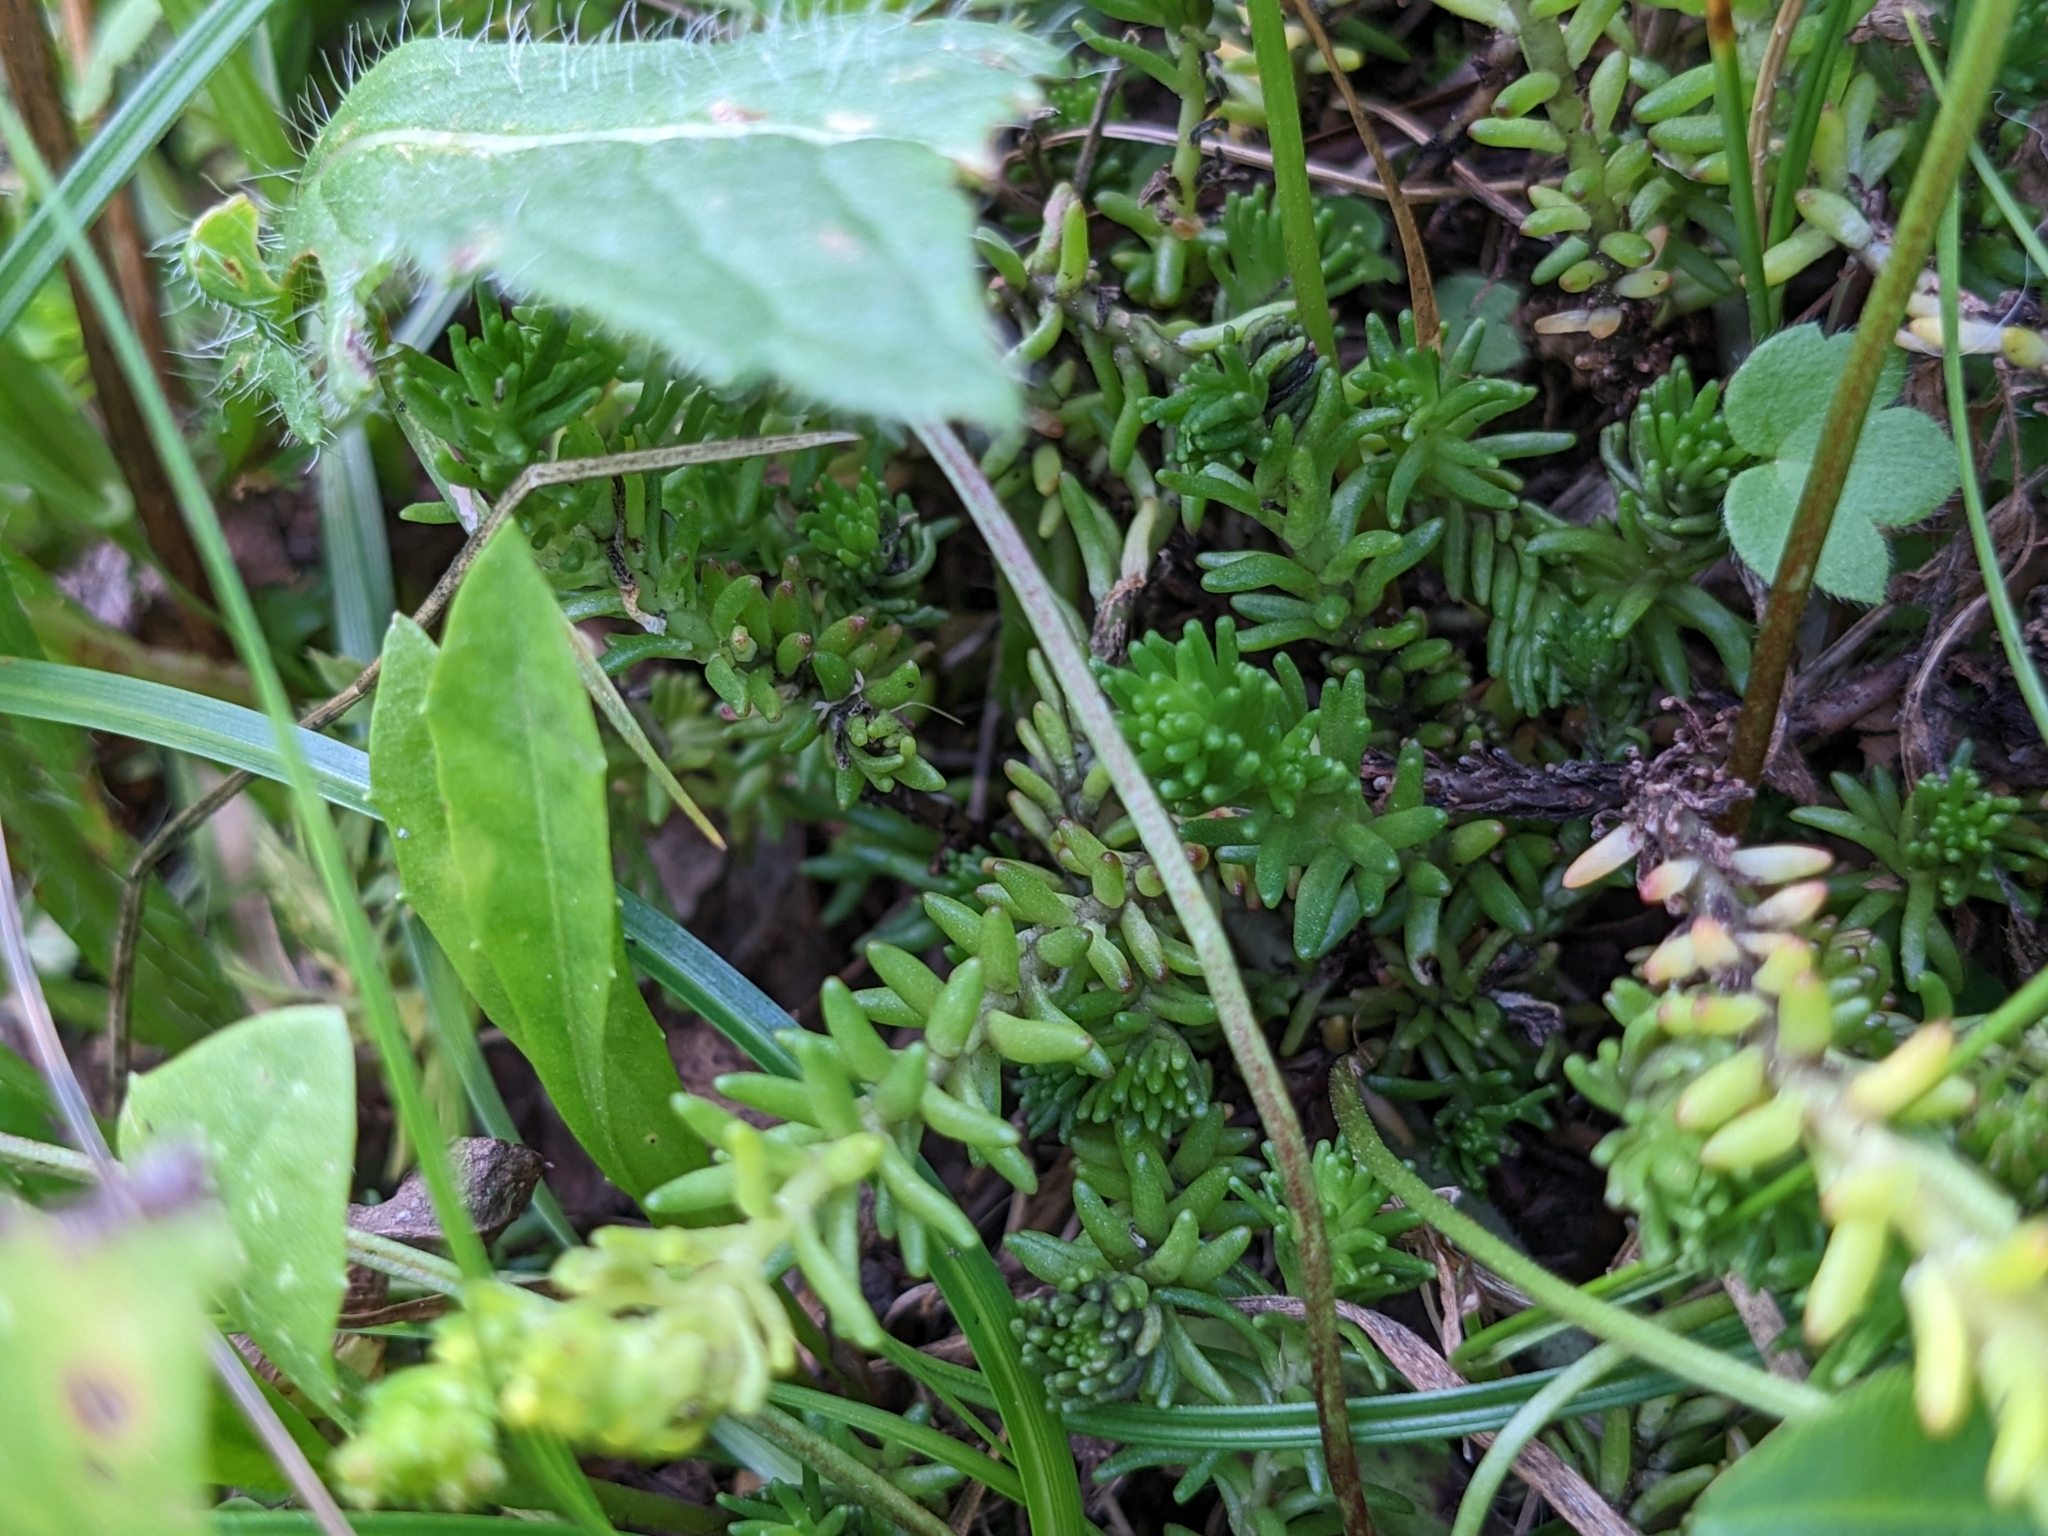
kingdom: Plantae
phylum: Tracheophyta
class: Magnoliopsida
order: Saxifragales
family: Crassulaceae
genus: Sedum
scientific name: Sedum sexangulare
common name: Tasteless stonecrop
